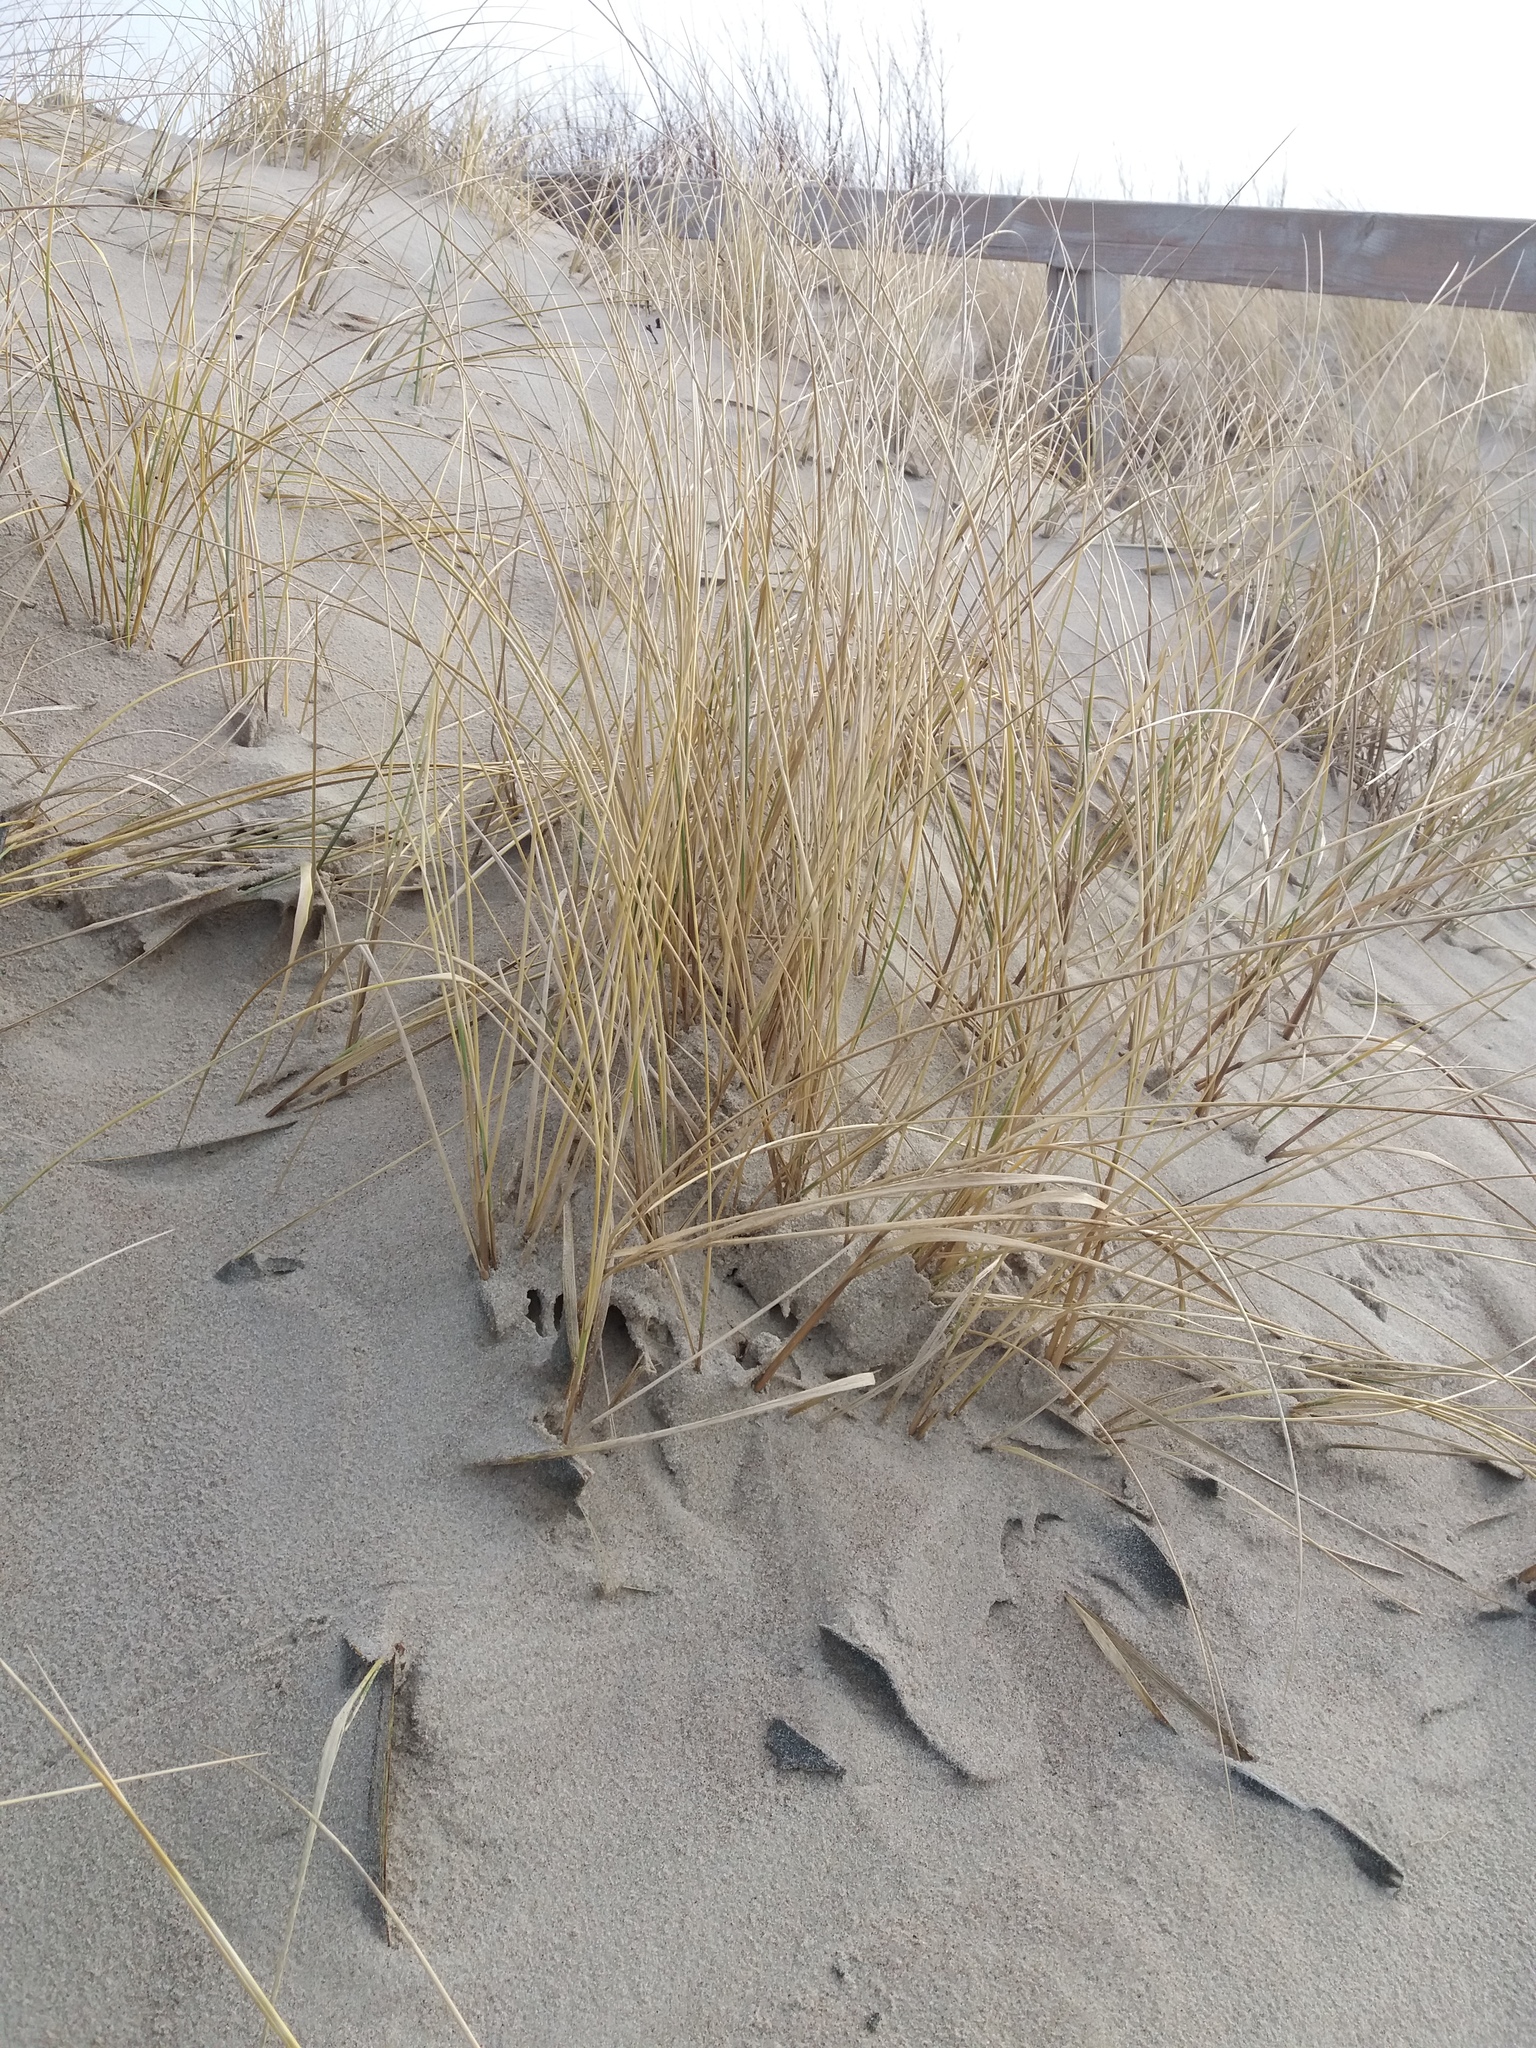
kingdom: Plantae
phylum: Tracheophyta
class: Liliopsida
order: Poales
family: Poaceae
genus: Calamagrostis
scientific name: Calamagrostis arenaria
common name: European beachgrass
